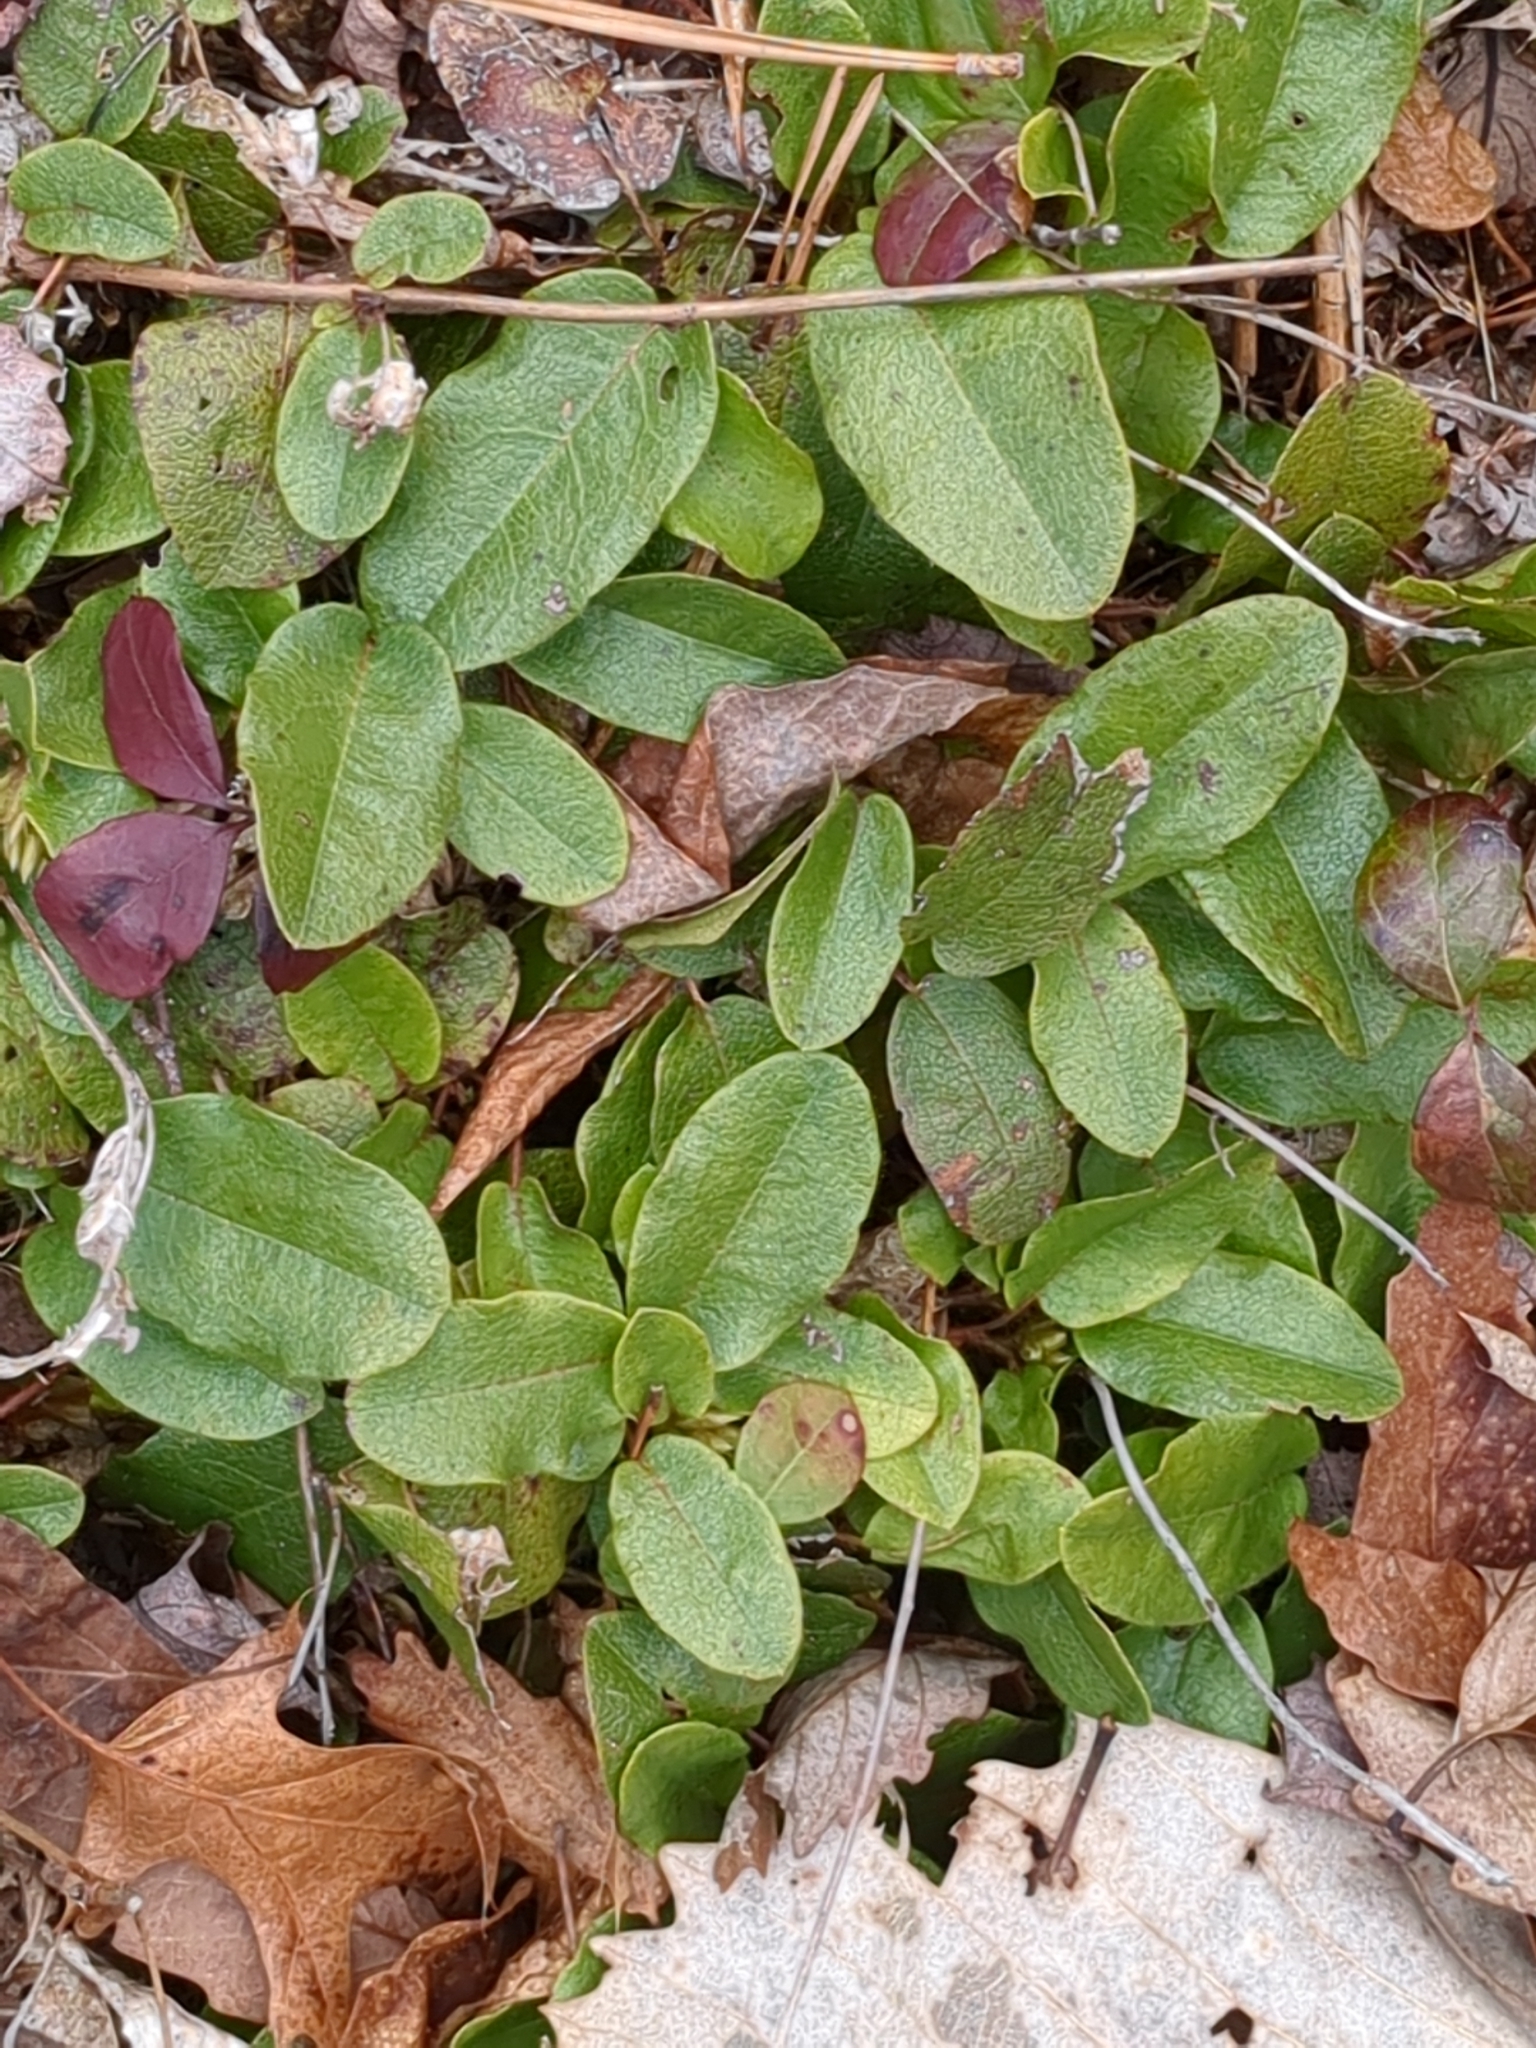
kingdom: Plantae
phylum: Tracheophyta
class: Magnoliopsida
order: Ericales
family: Ericaceae
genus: Epigaea
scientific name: Epigaea repens
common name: Gravelroot
